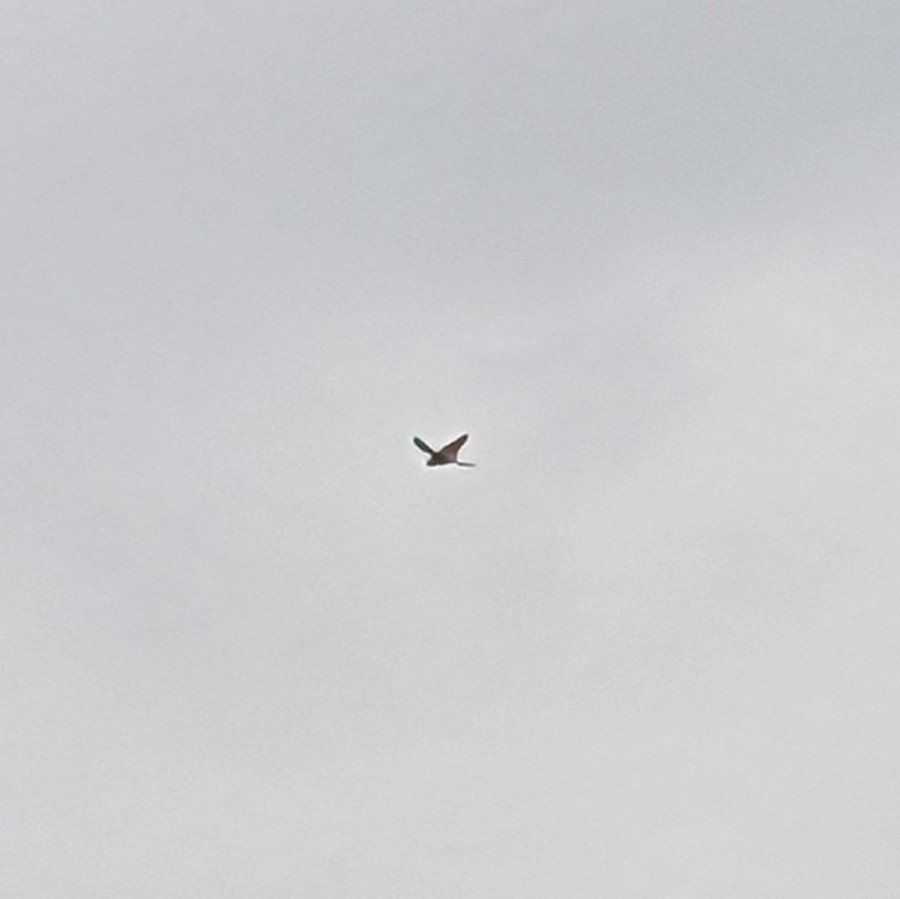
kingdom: Animalia
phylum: Chordata
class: Aves
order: Falconiformes
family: Falconidae
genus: Falco
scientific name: Falco tinnunculus
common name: Common kestrel
